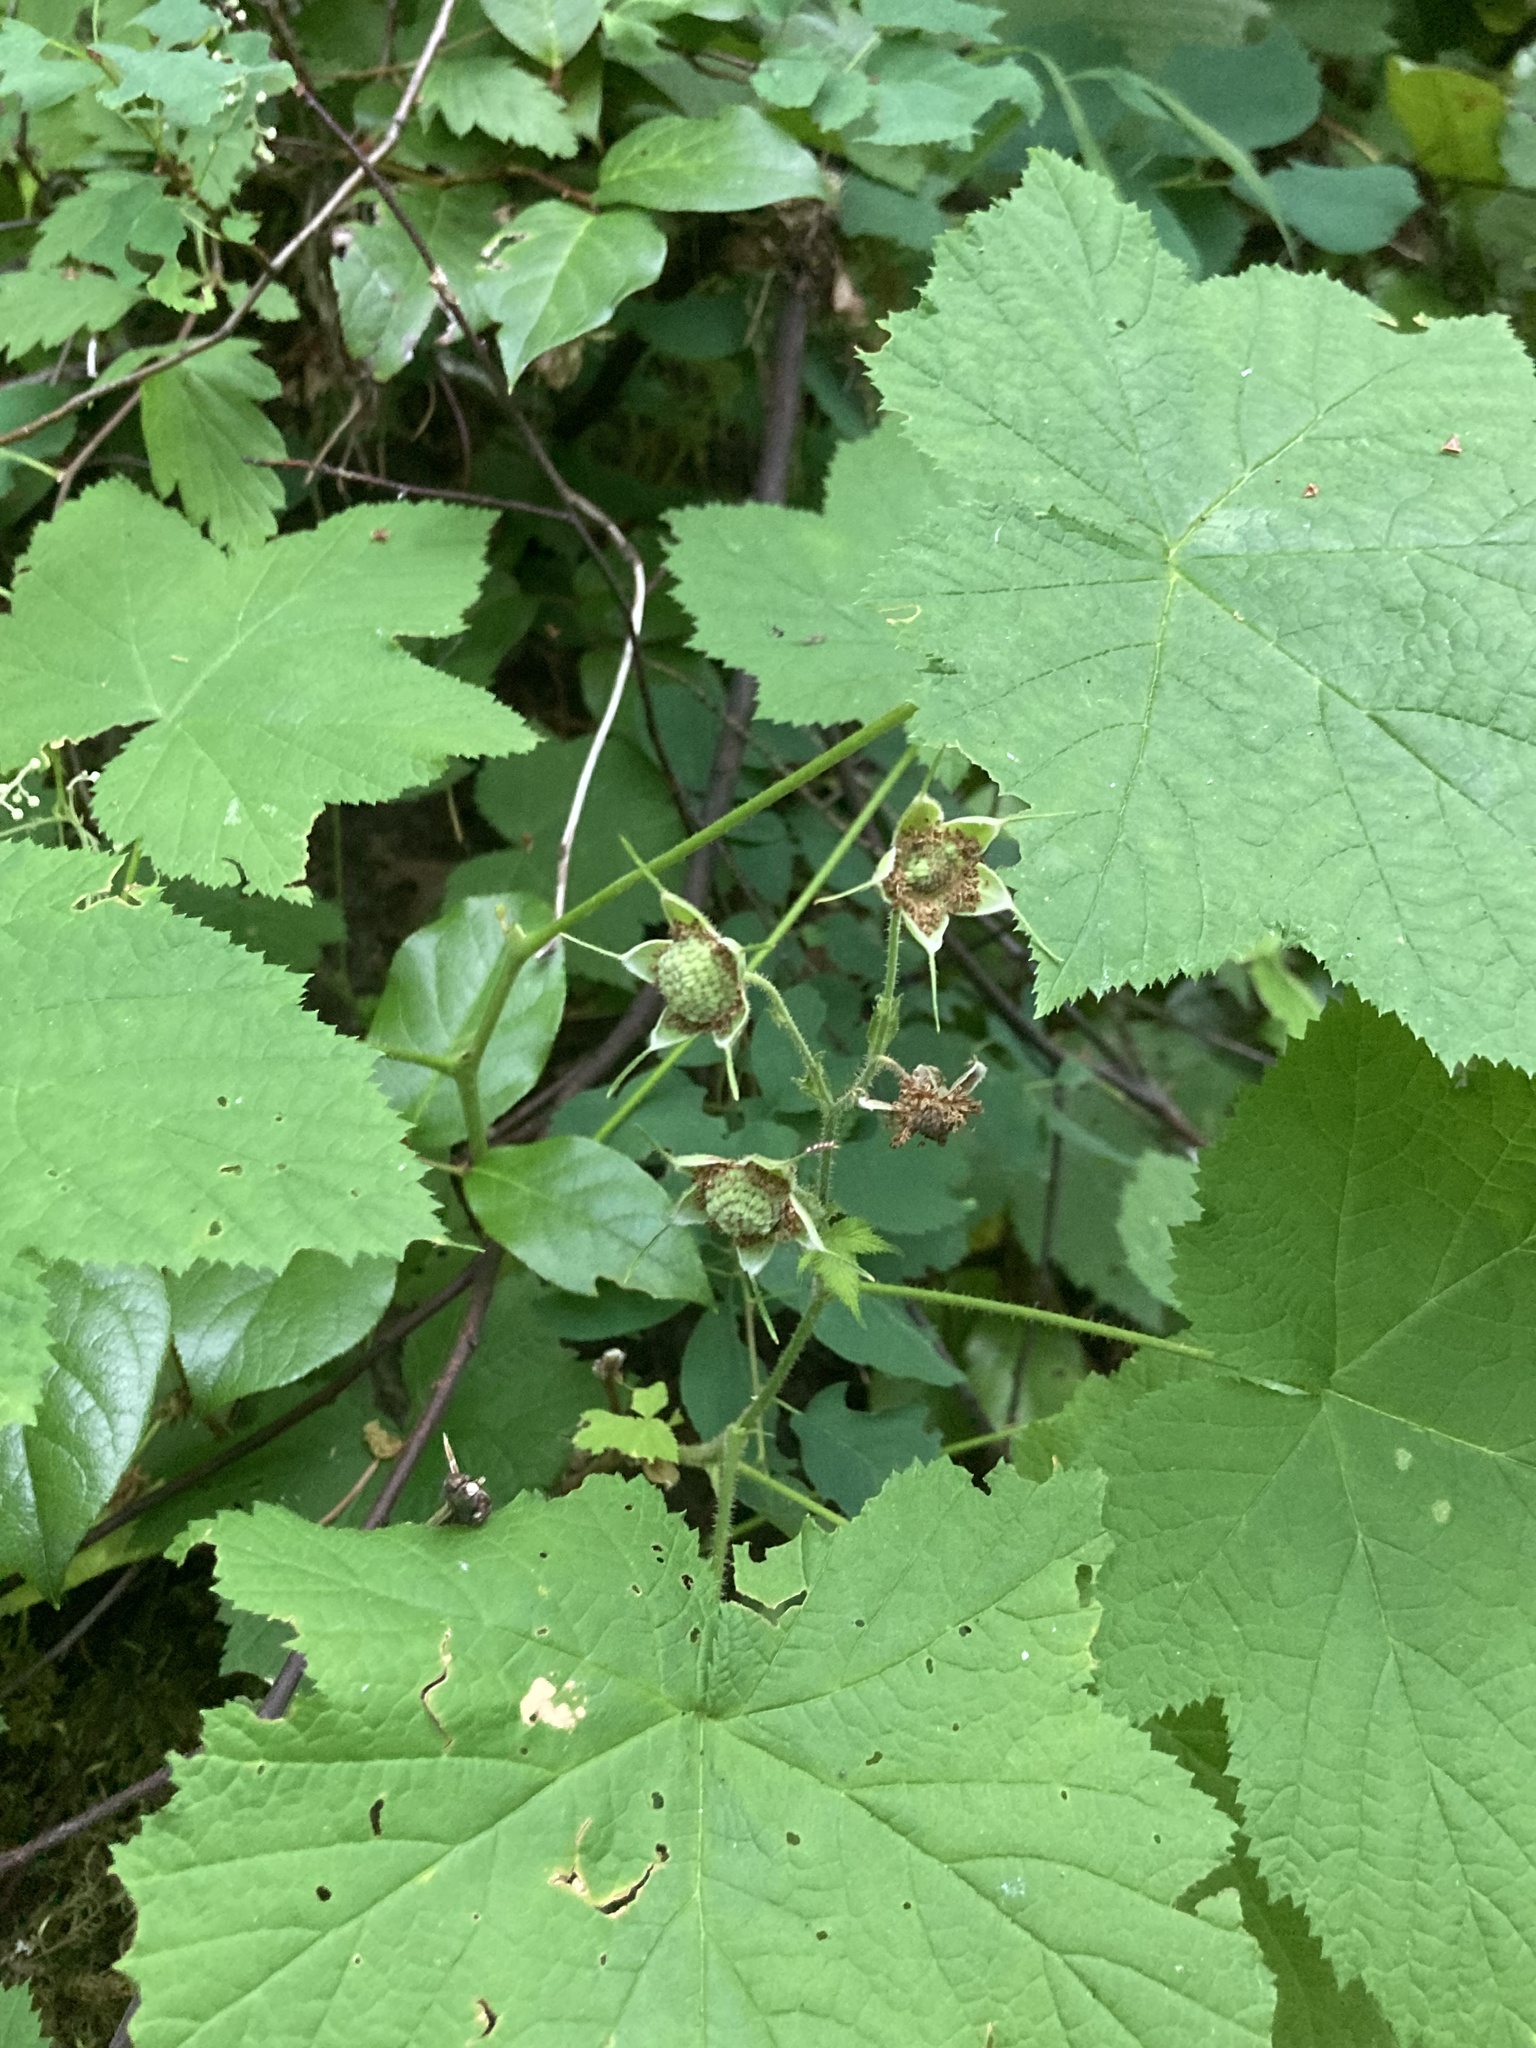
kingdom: Plantae
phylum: Tracheophyta
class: Magnoliopsida
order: Rosales
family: Rosaceae
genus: Rubus
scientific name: Rubus parviflorus
